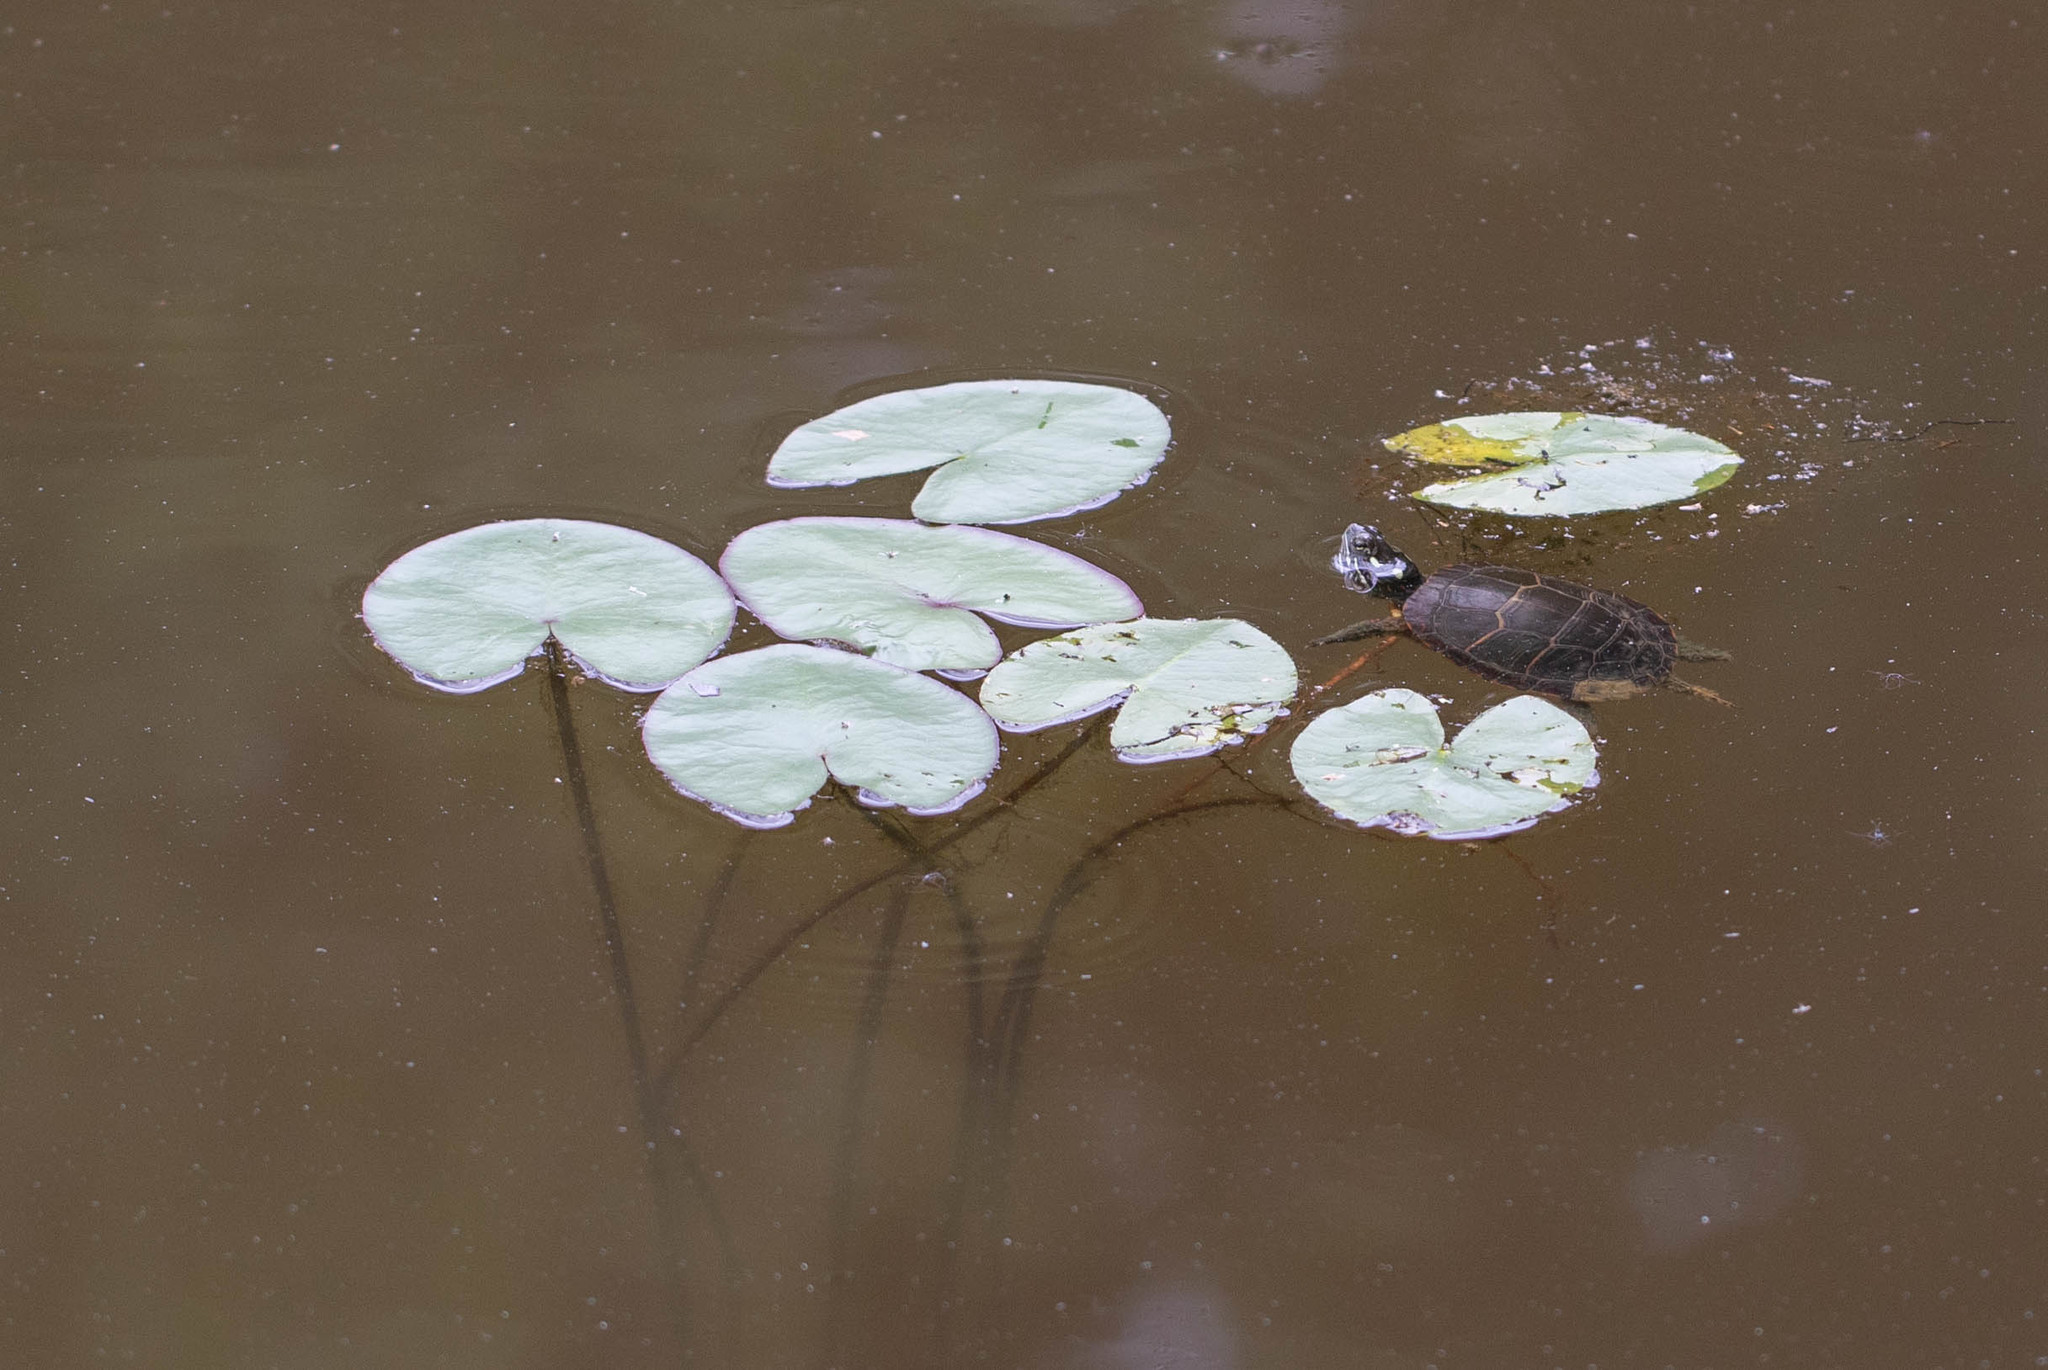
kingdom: Animalia
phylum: Chordata
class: Testudines
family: Emydidae
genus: Chrysemys
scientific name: Chrysemys picta
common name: Painted turtle
